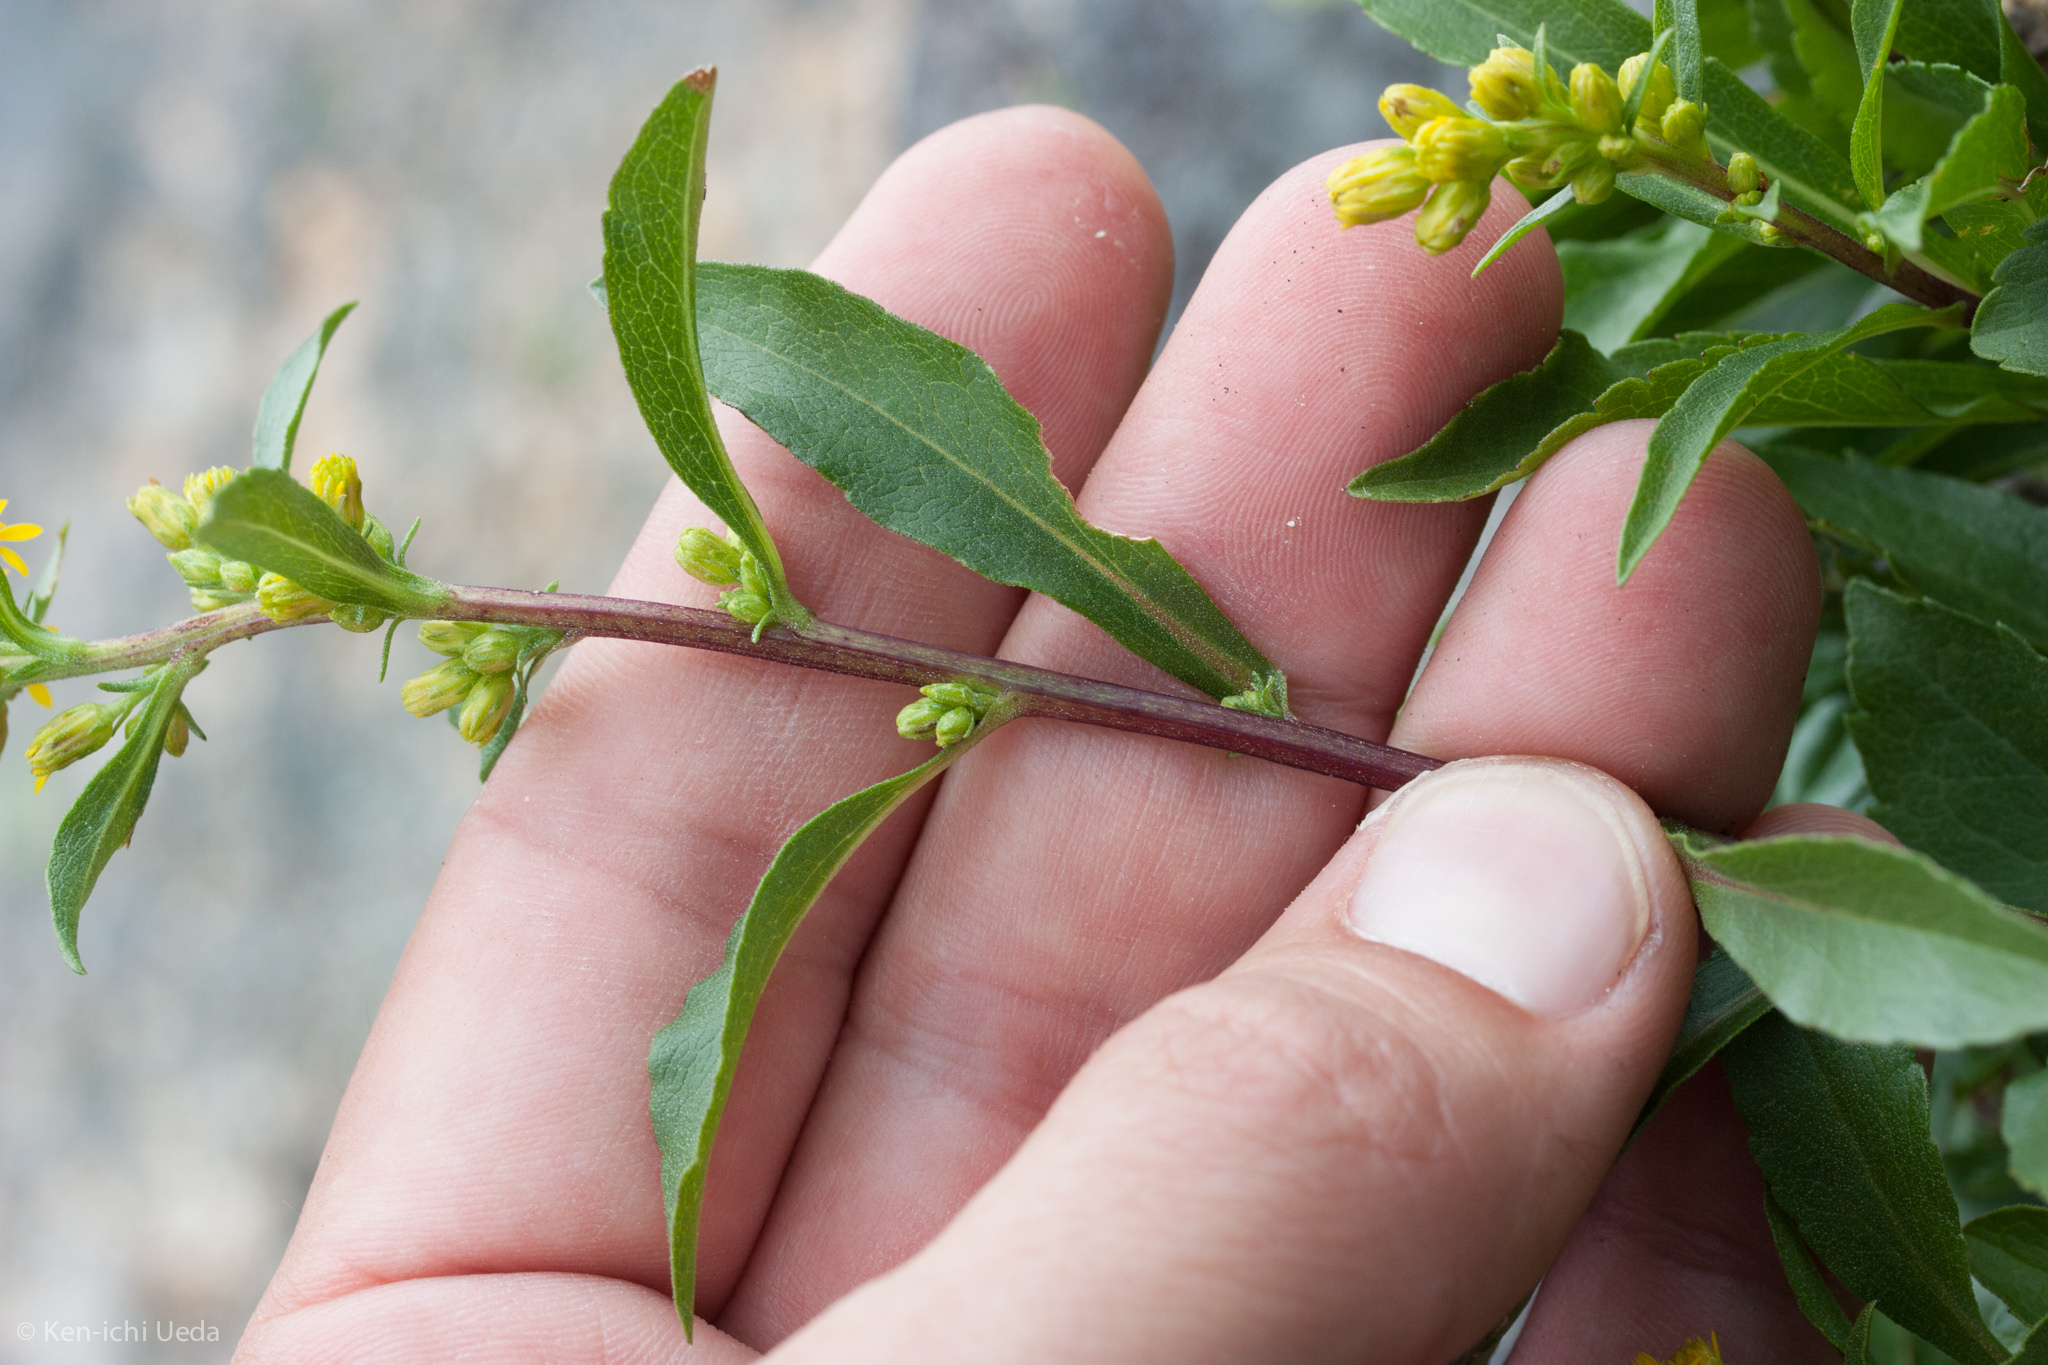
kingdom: Plantae
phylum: Tracheophyta
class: Magnoliopsida
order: Asterales
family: Asteraceae
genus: Solidago
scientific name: Solidago leiocarpa
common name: Cutler's alpine goldenrod
